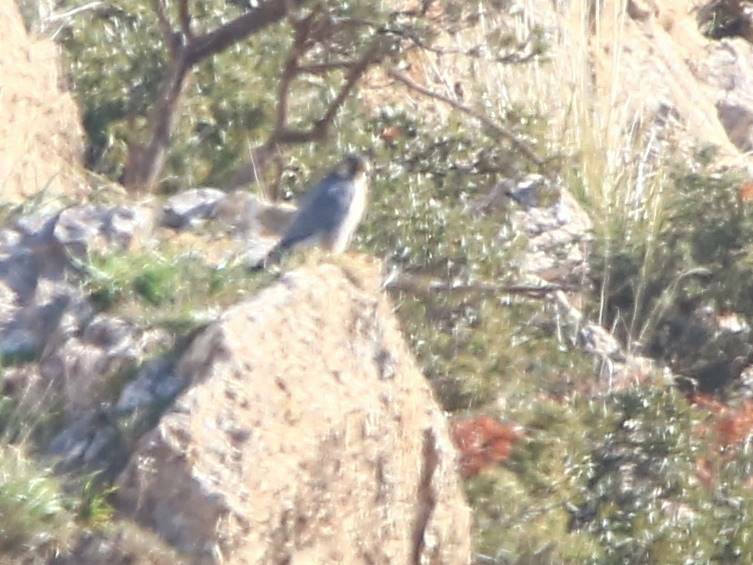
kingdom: Animalia
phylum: Chordata
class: Aves
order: Falconiformes
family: Falconidae
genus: Falco
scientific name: Falco peregrinus
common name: Peregrine falcon
